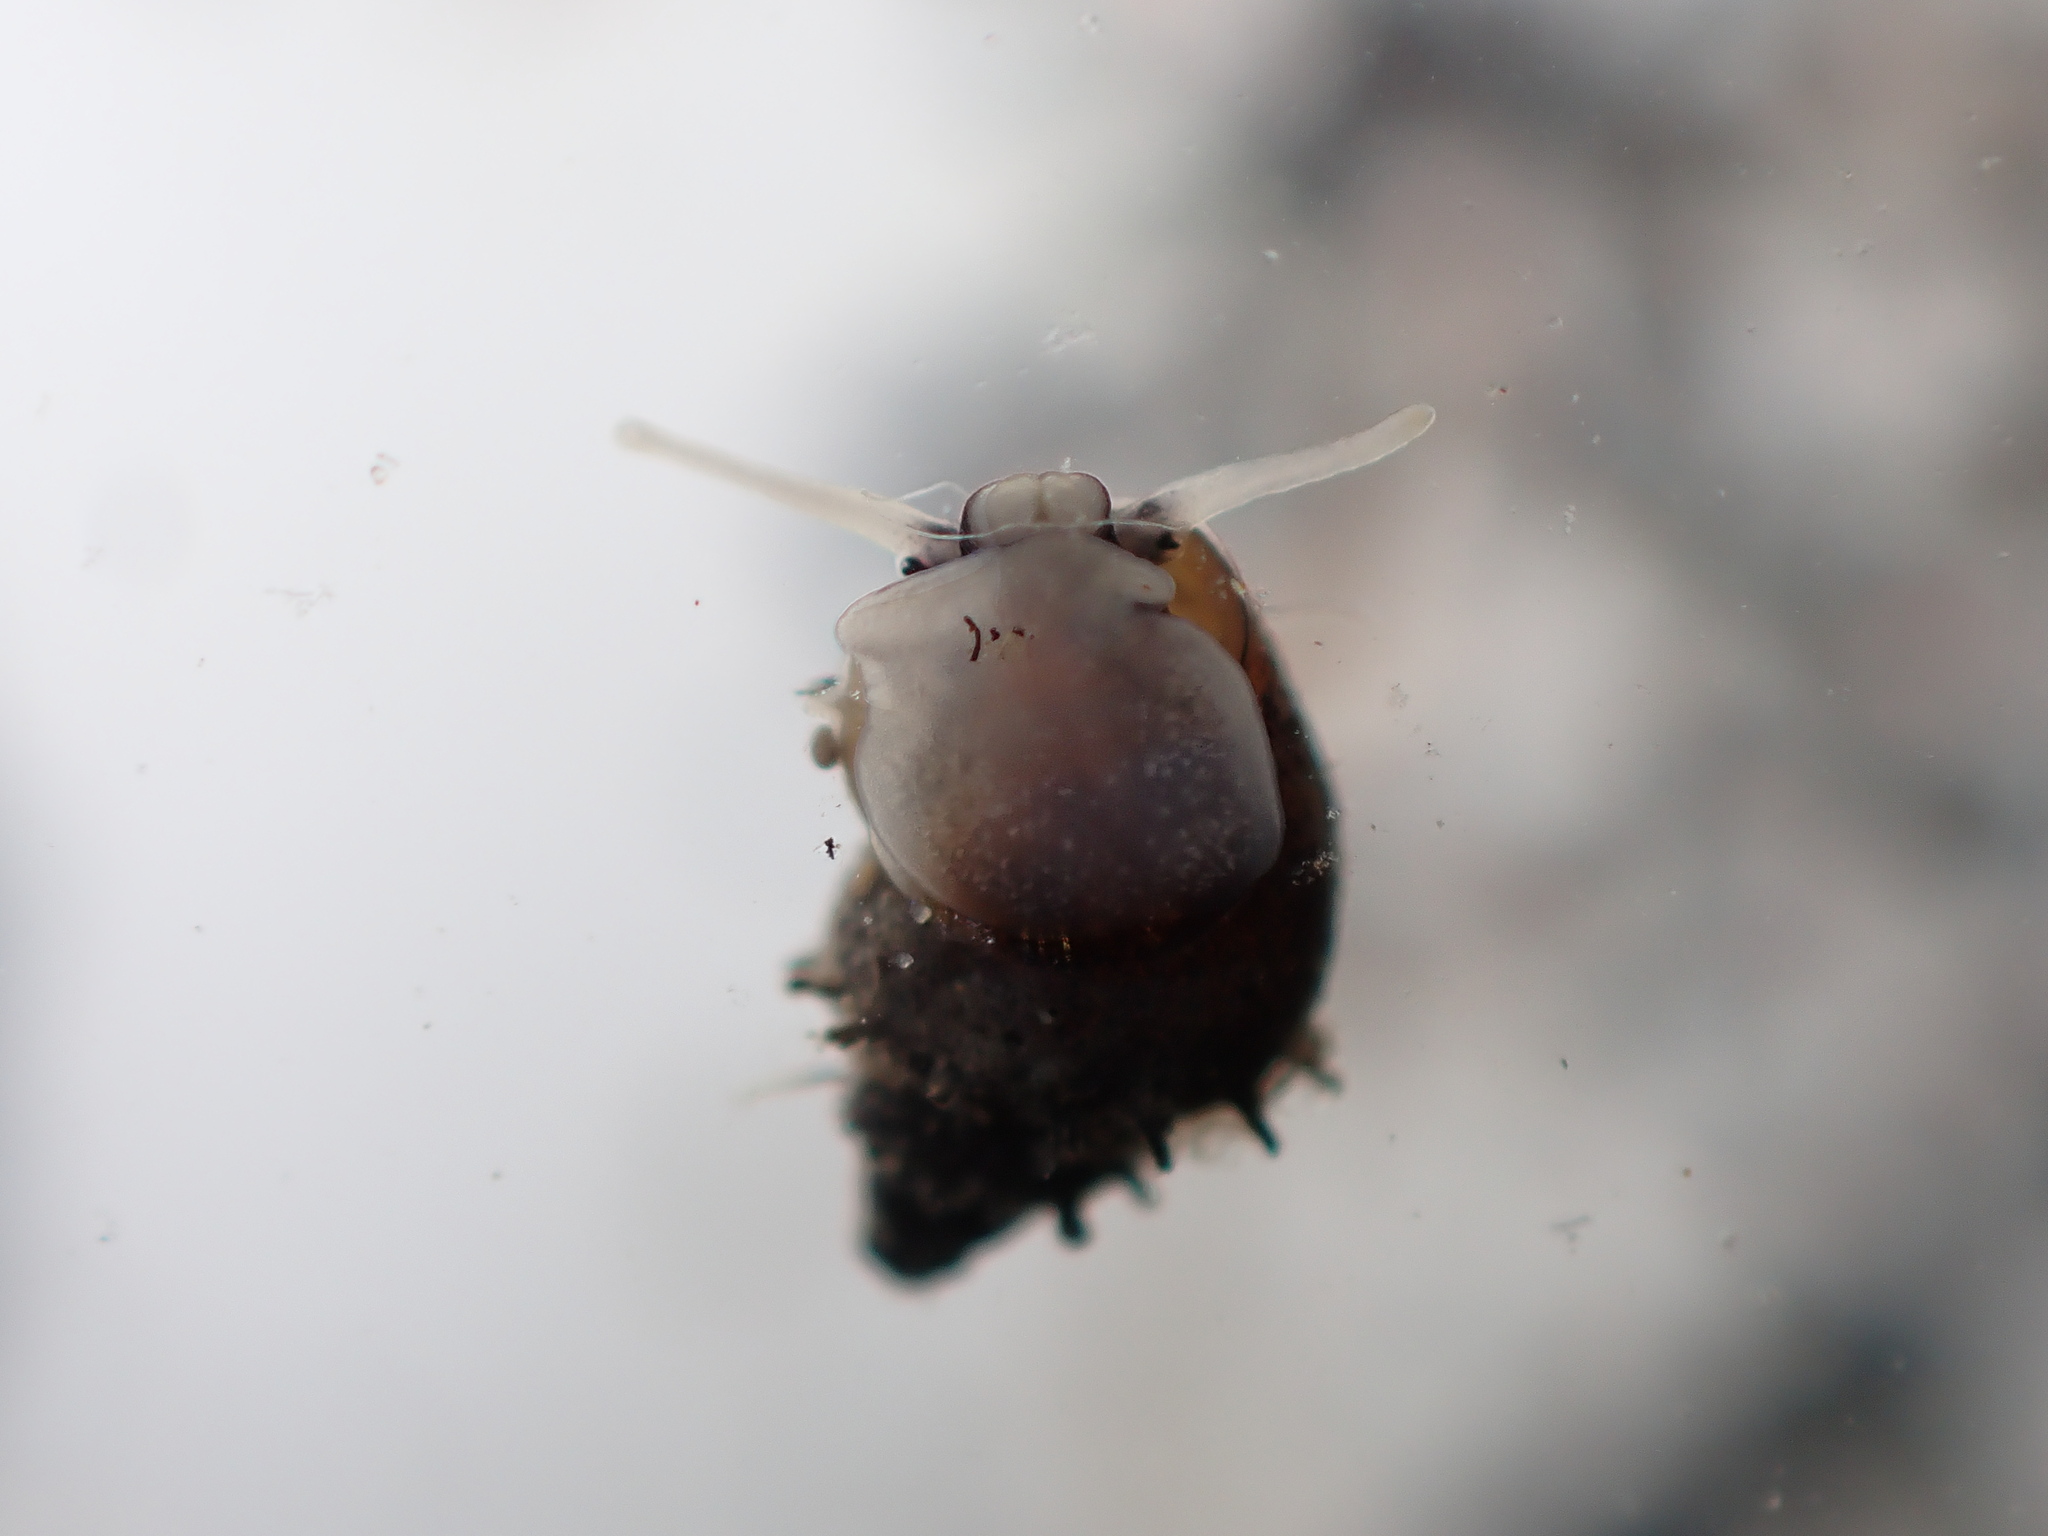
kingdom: Animalia
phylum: Mollusca
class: Gastropoda
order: Littorinimorpha
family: Tateidae
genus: Potamopyrgus
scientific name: Potamopyrgus antipodarum
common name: Jenkins' spire snail
